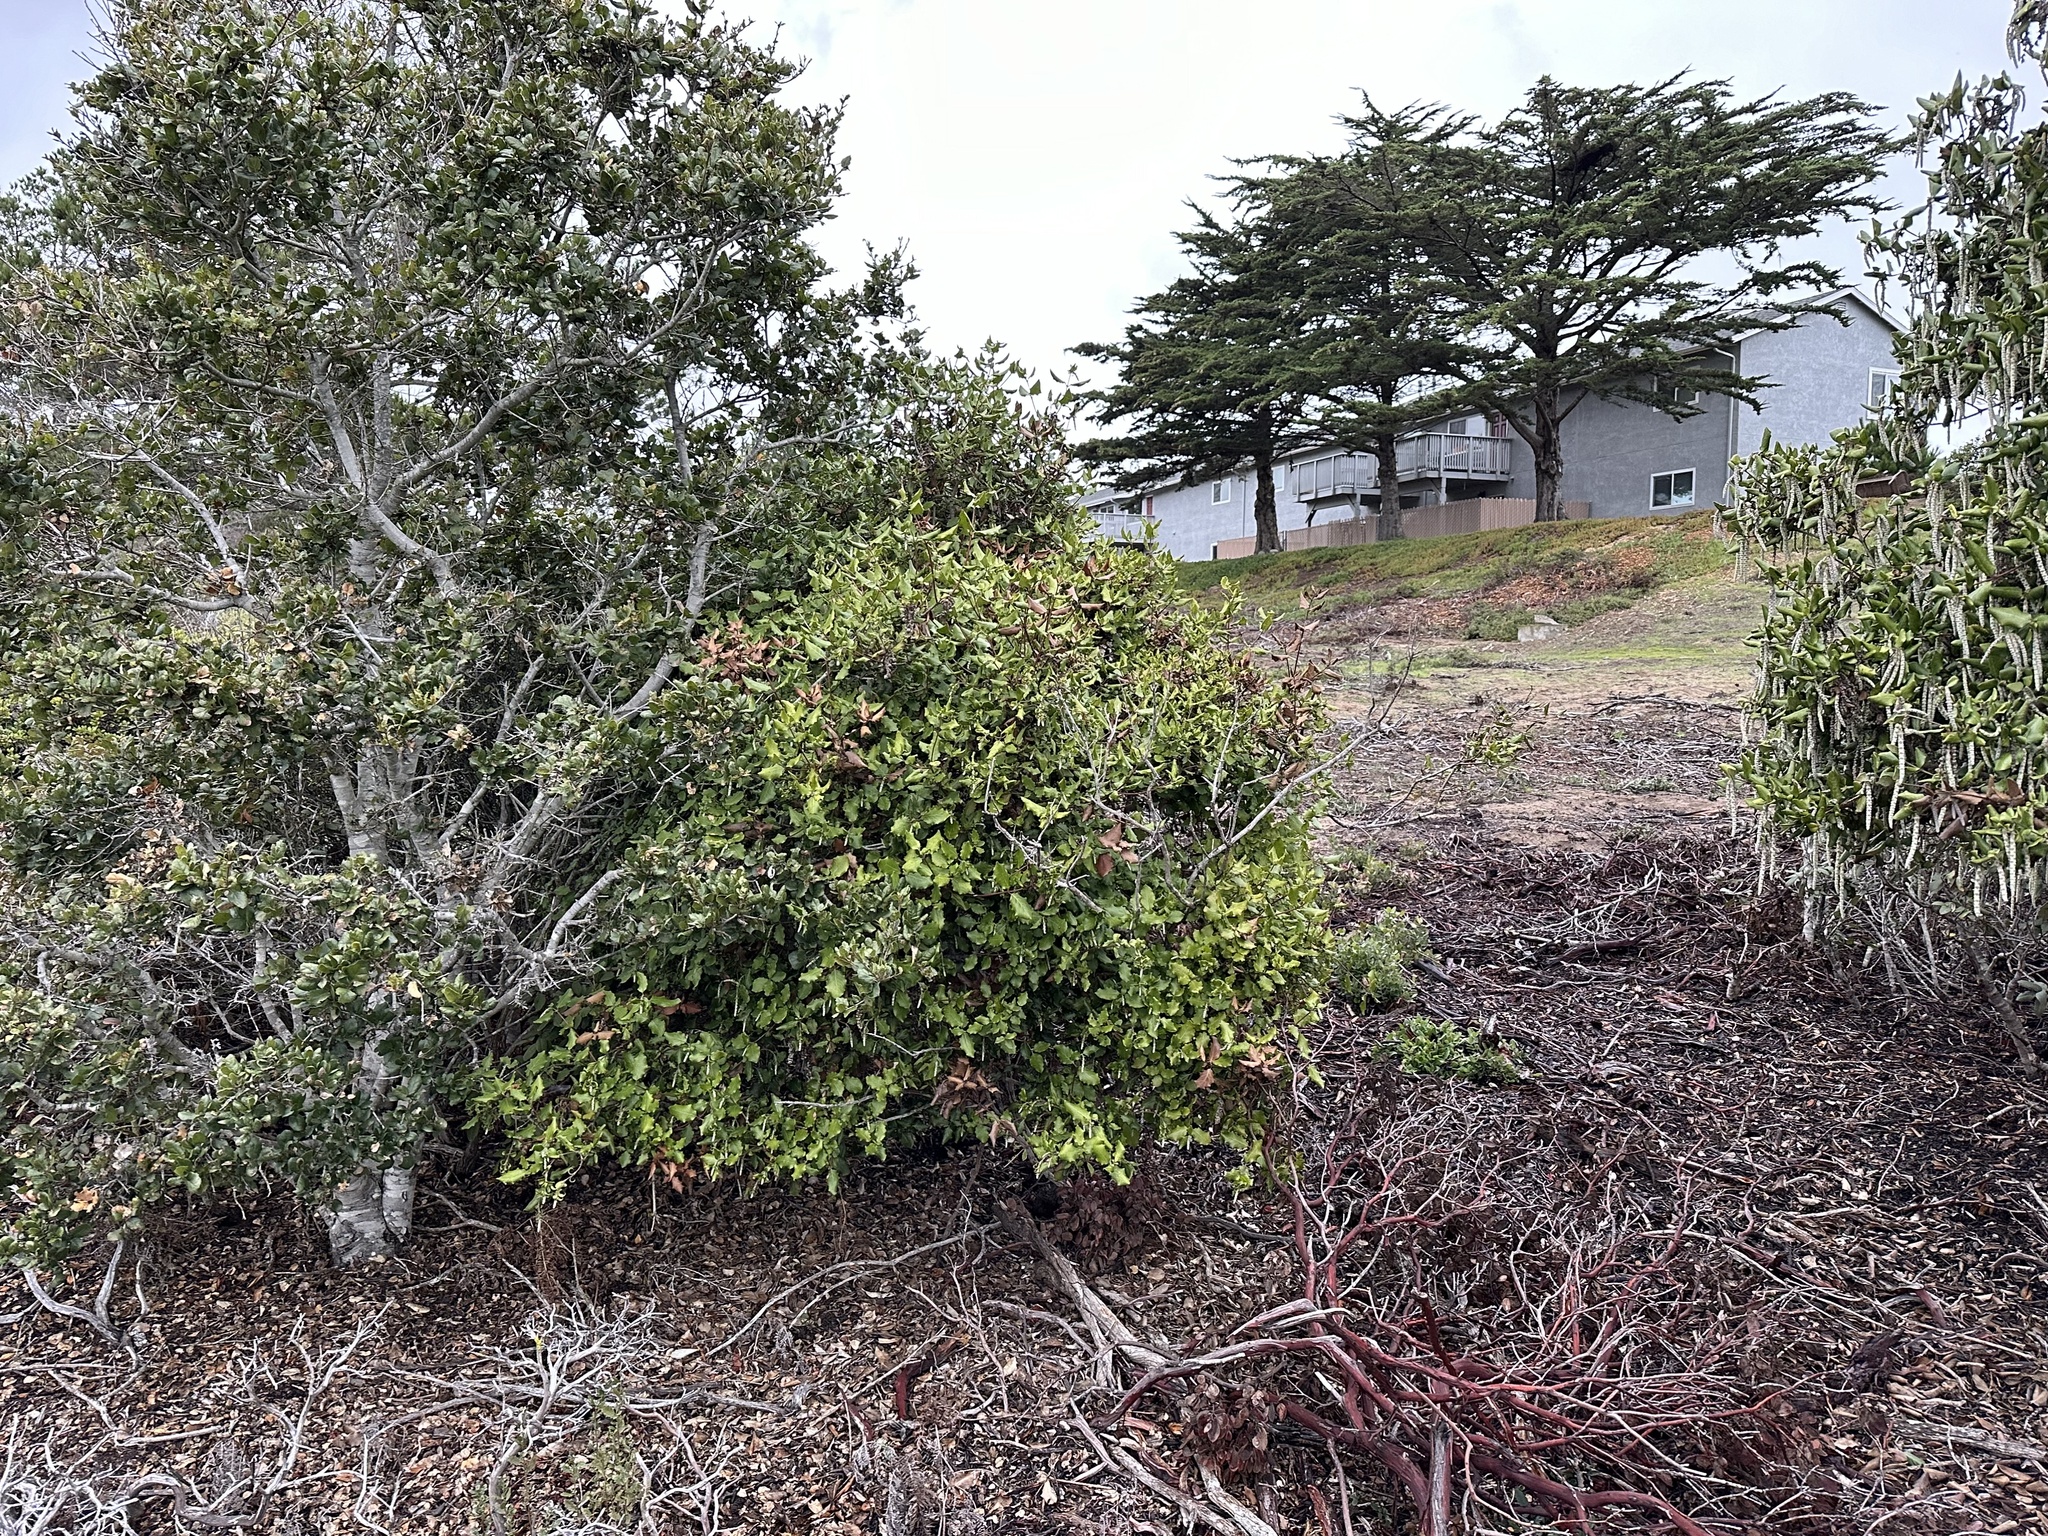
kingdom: Plantae
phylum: Tracheophyta
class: Magnoliopsida
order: Garryales
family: Garryaceae
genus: Garrya
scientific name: Garrya elliptica
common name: Silk-tassel
